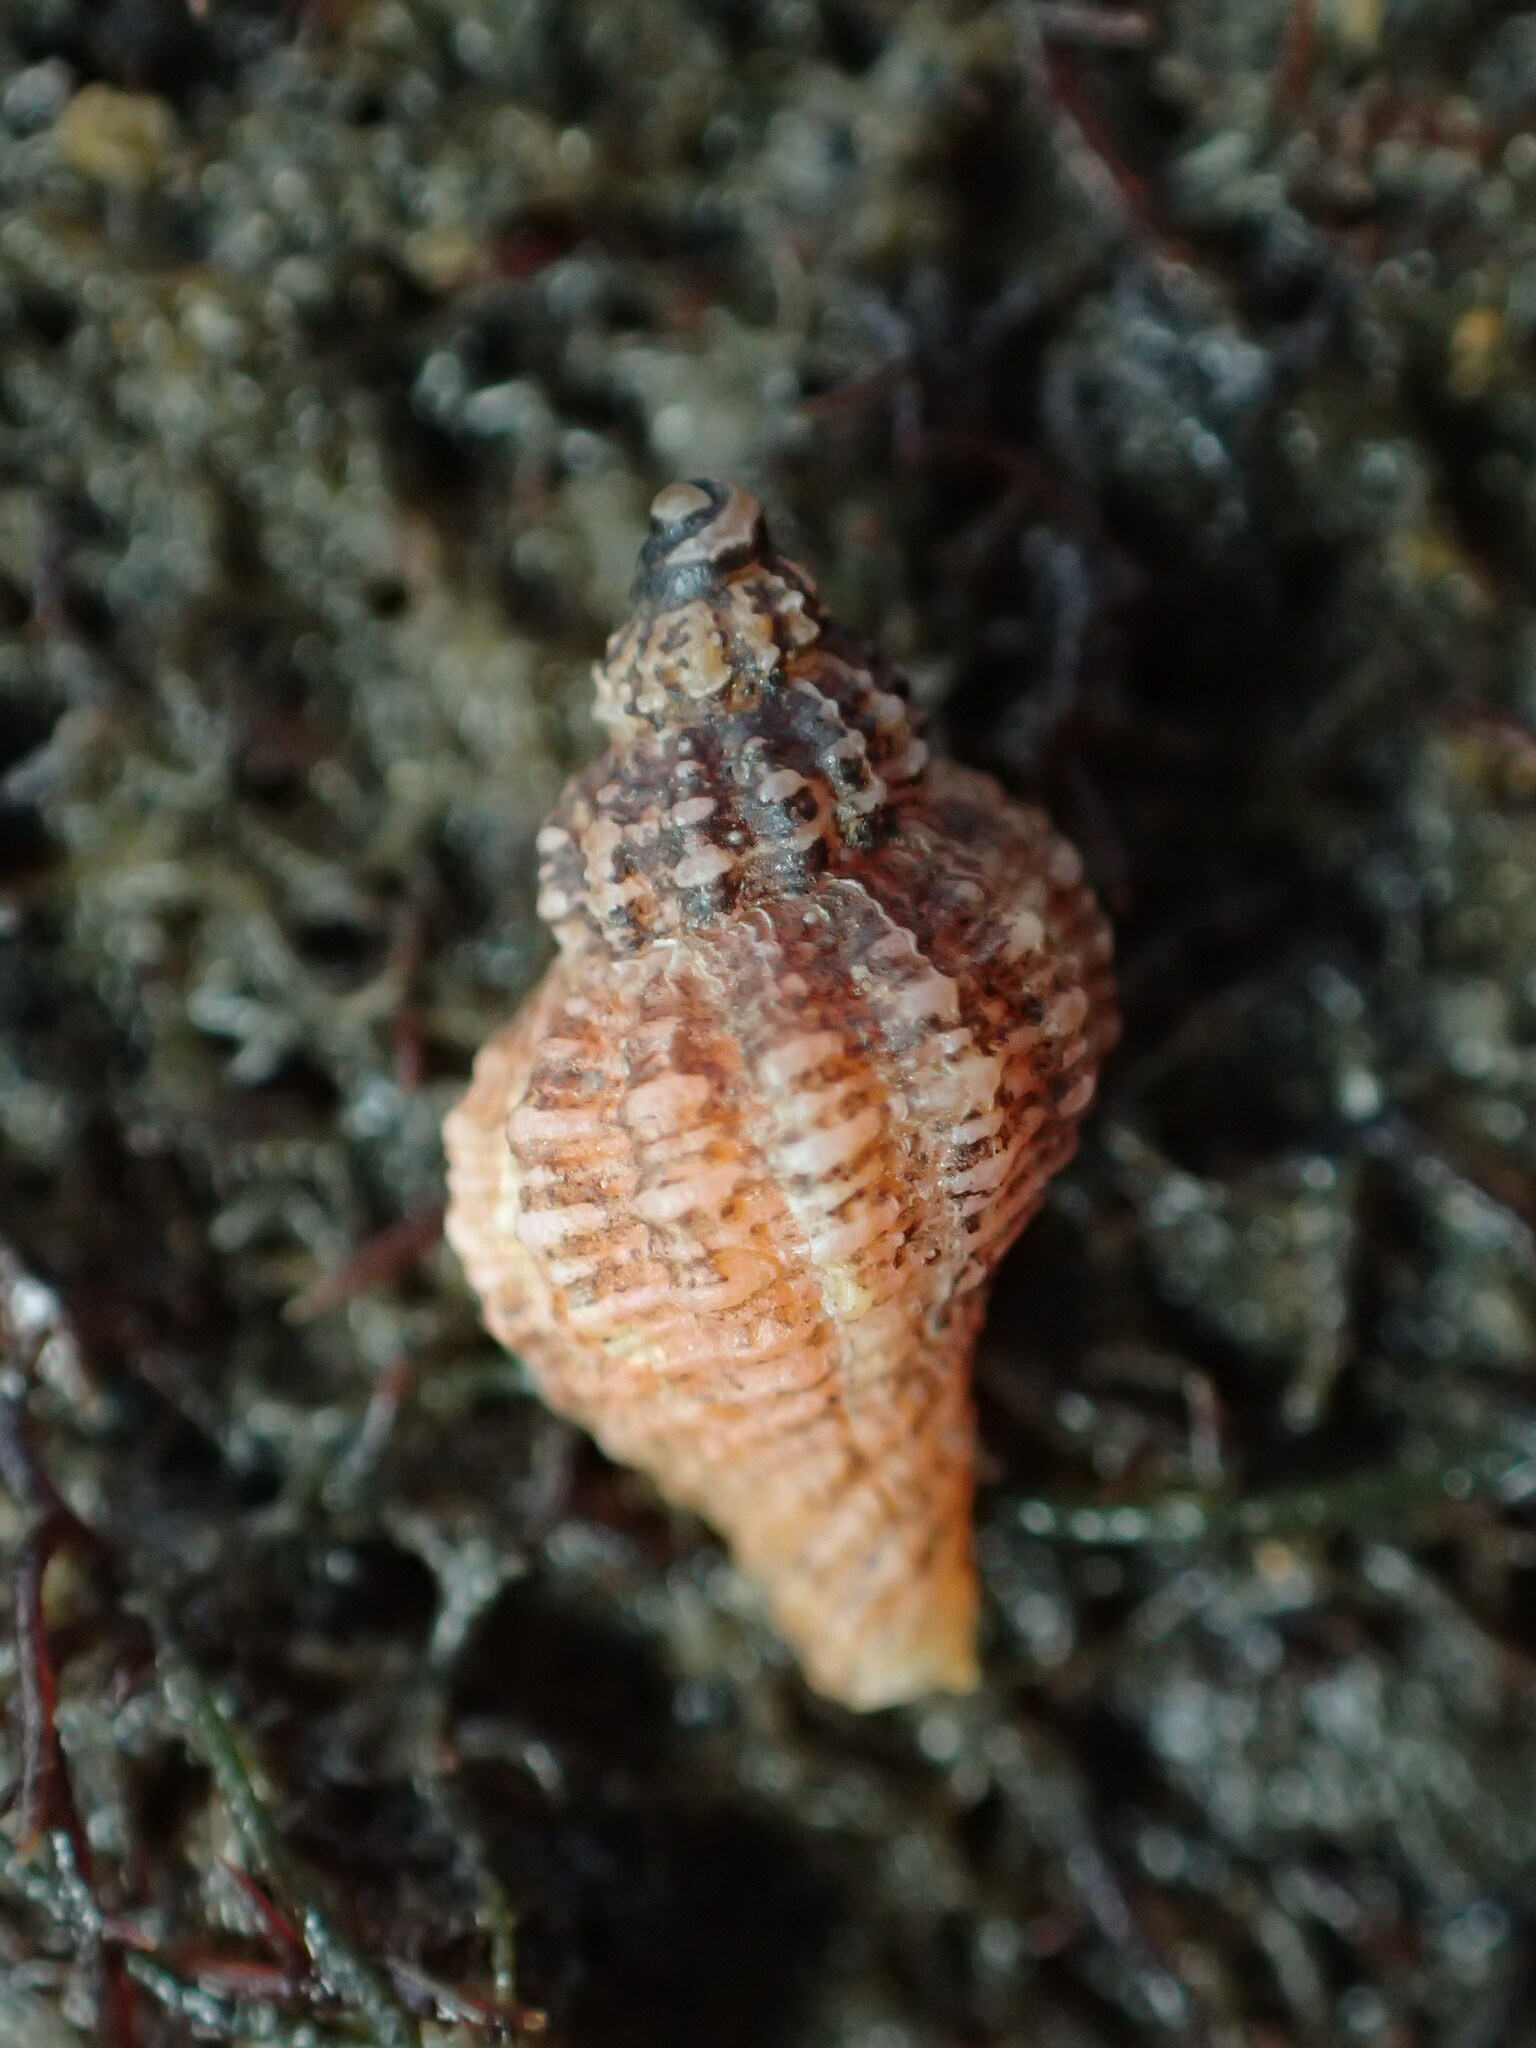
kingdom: Animalia
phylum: Mollusca
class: Gastropoda
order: Neogastropoda
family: Muricidae
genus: Urosalpinx
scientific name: Urosalpinx cinerea
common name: American sting winkle
